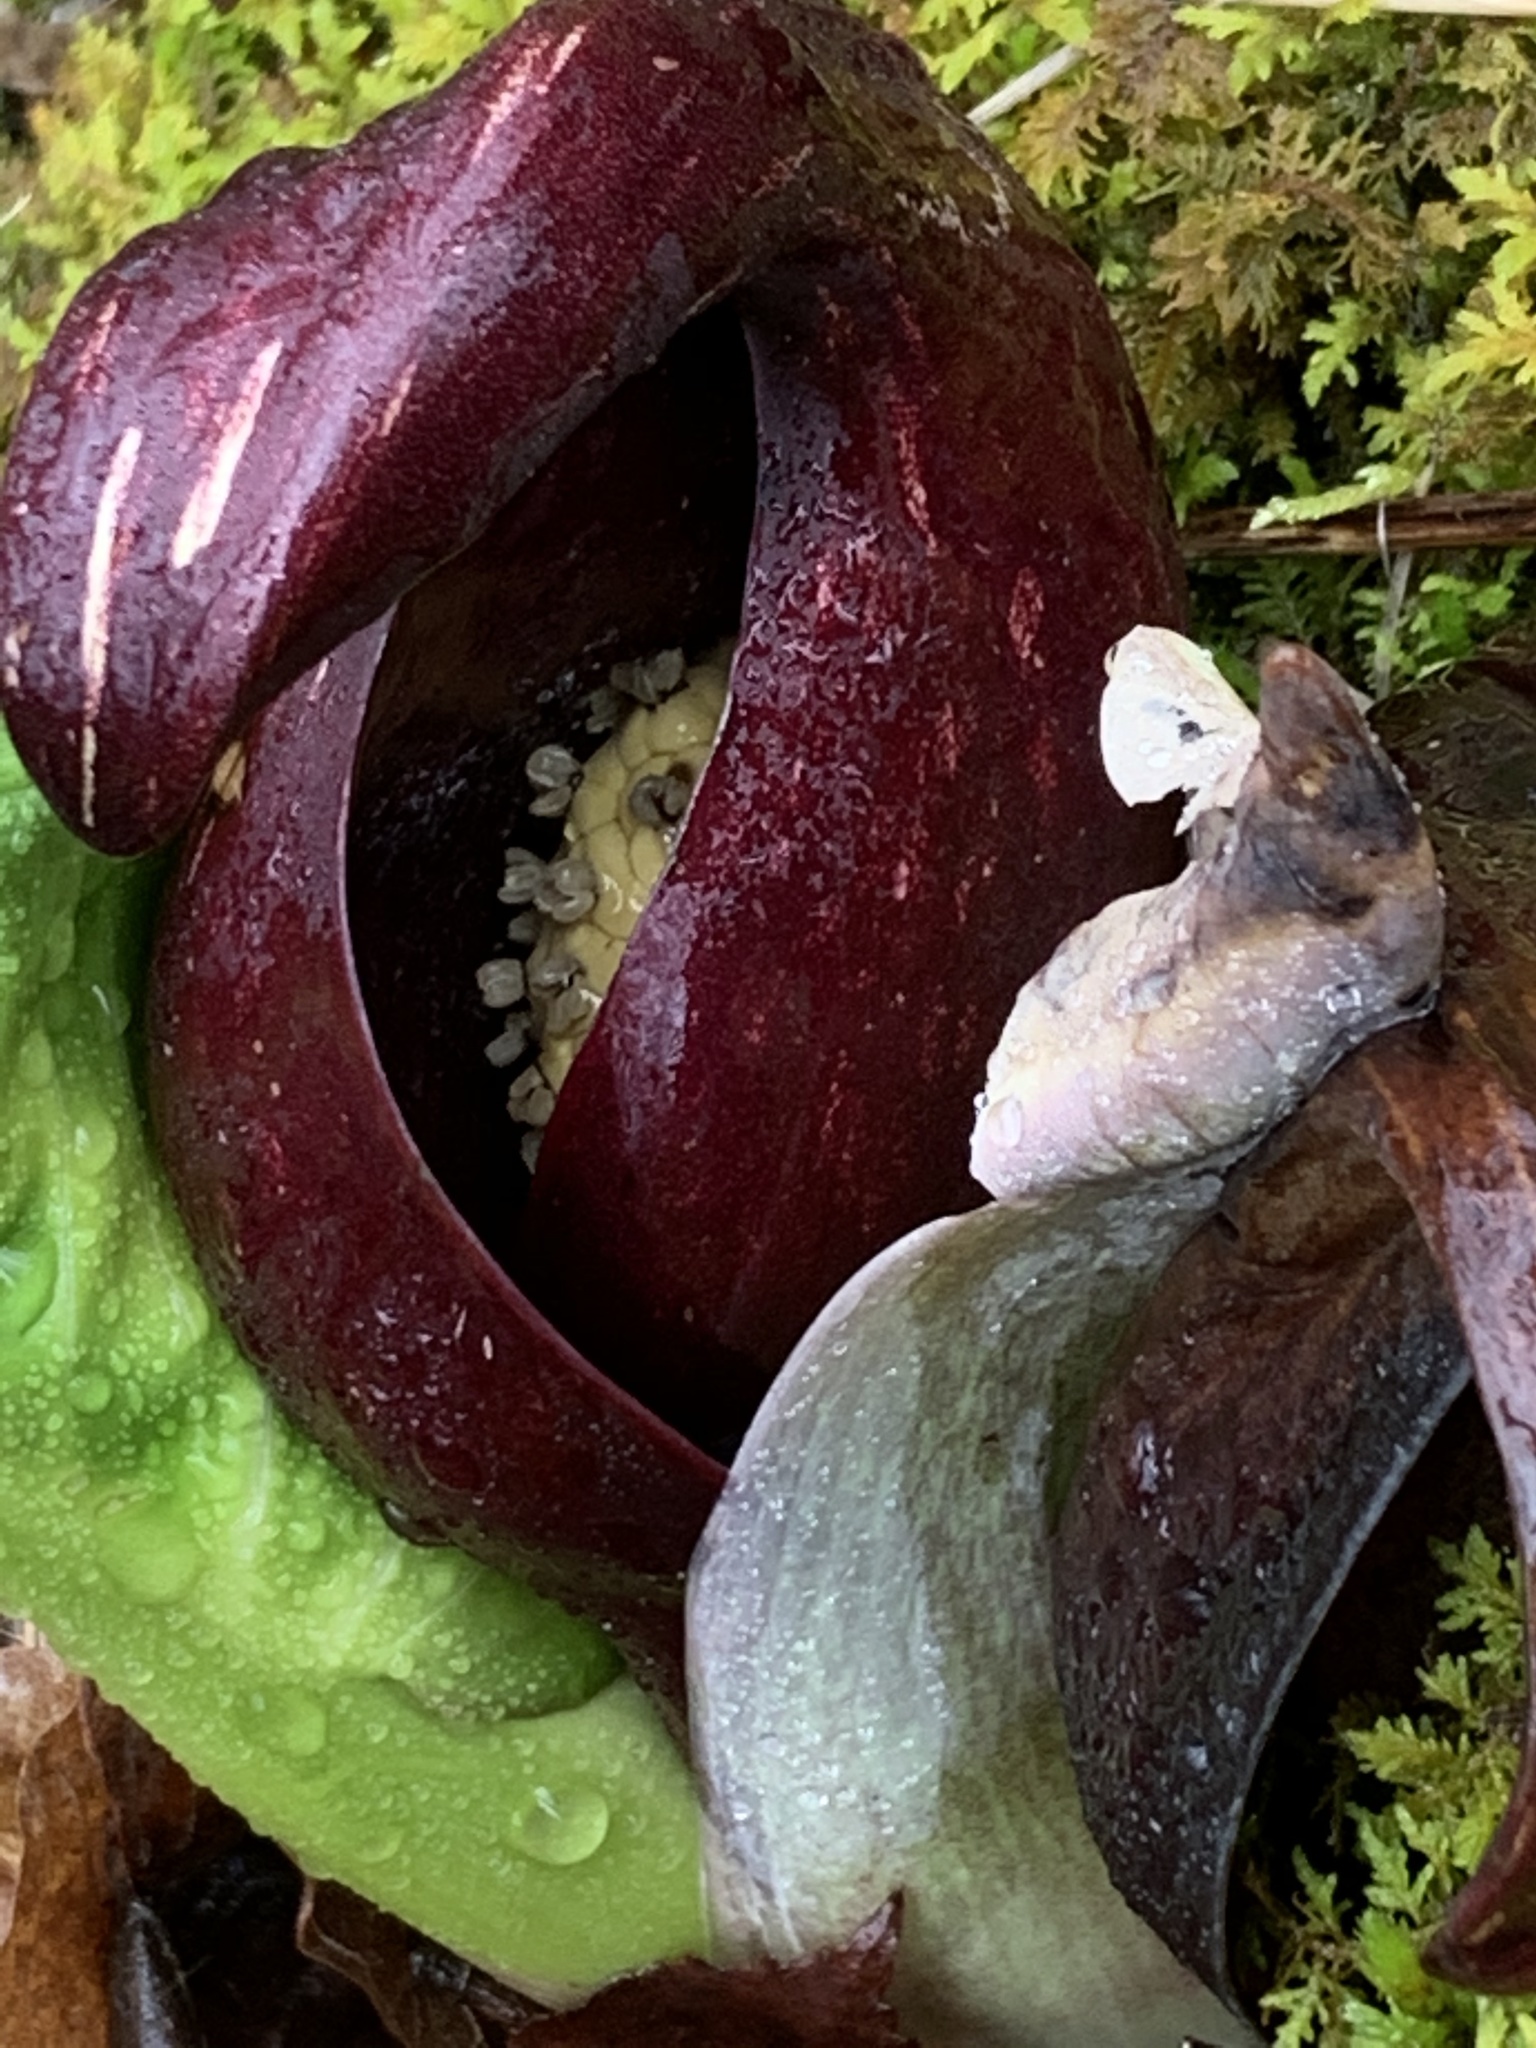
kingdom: Plantae
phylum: Tracheophyta
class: Liliopsida
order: Alismatales
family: Araceae
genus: Symplocarpus
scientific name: Symplocarpus foetidus
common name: Eastern skunk cabbage
